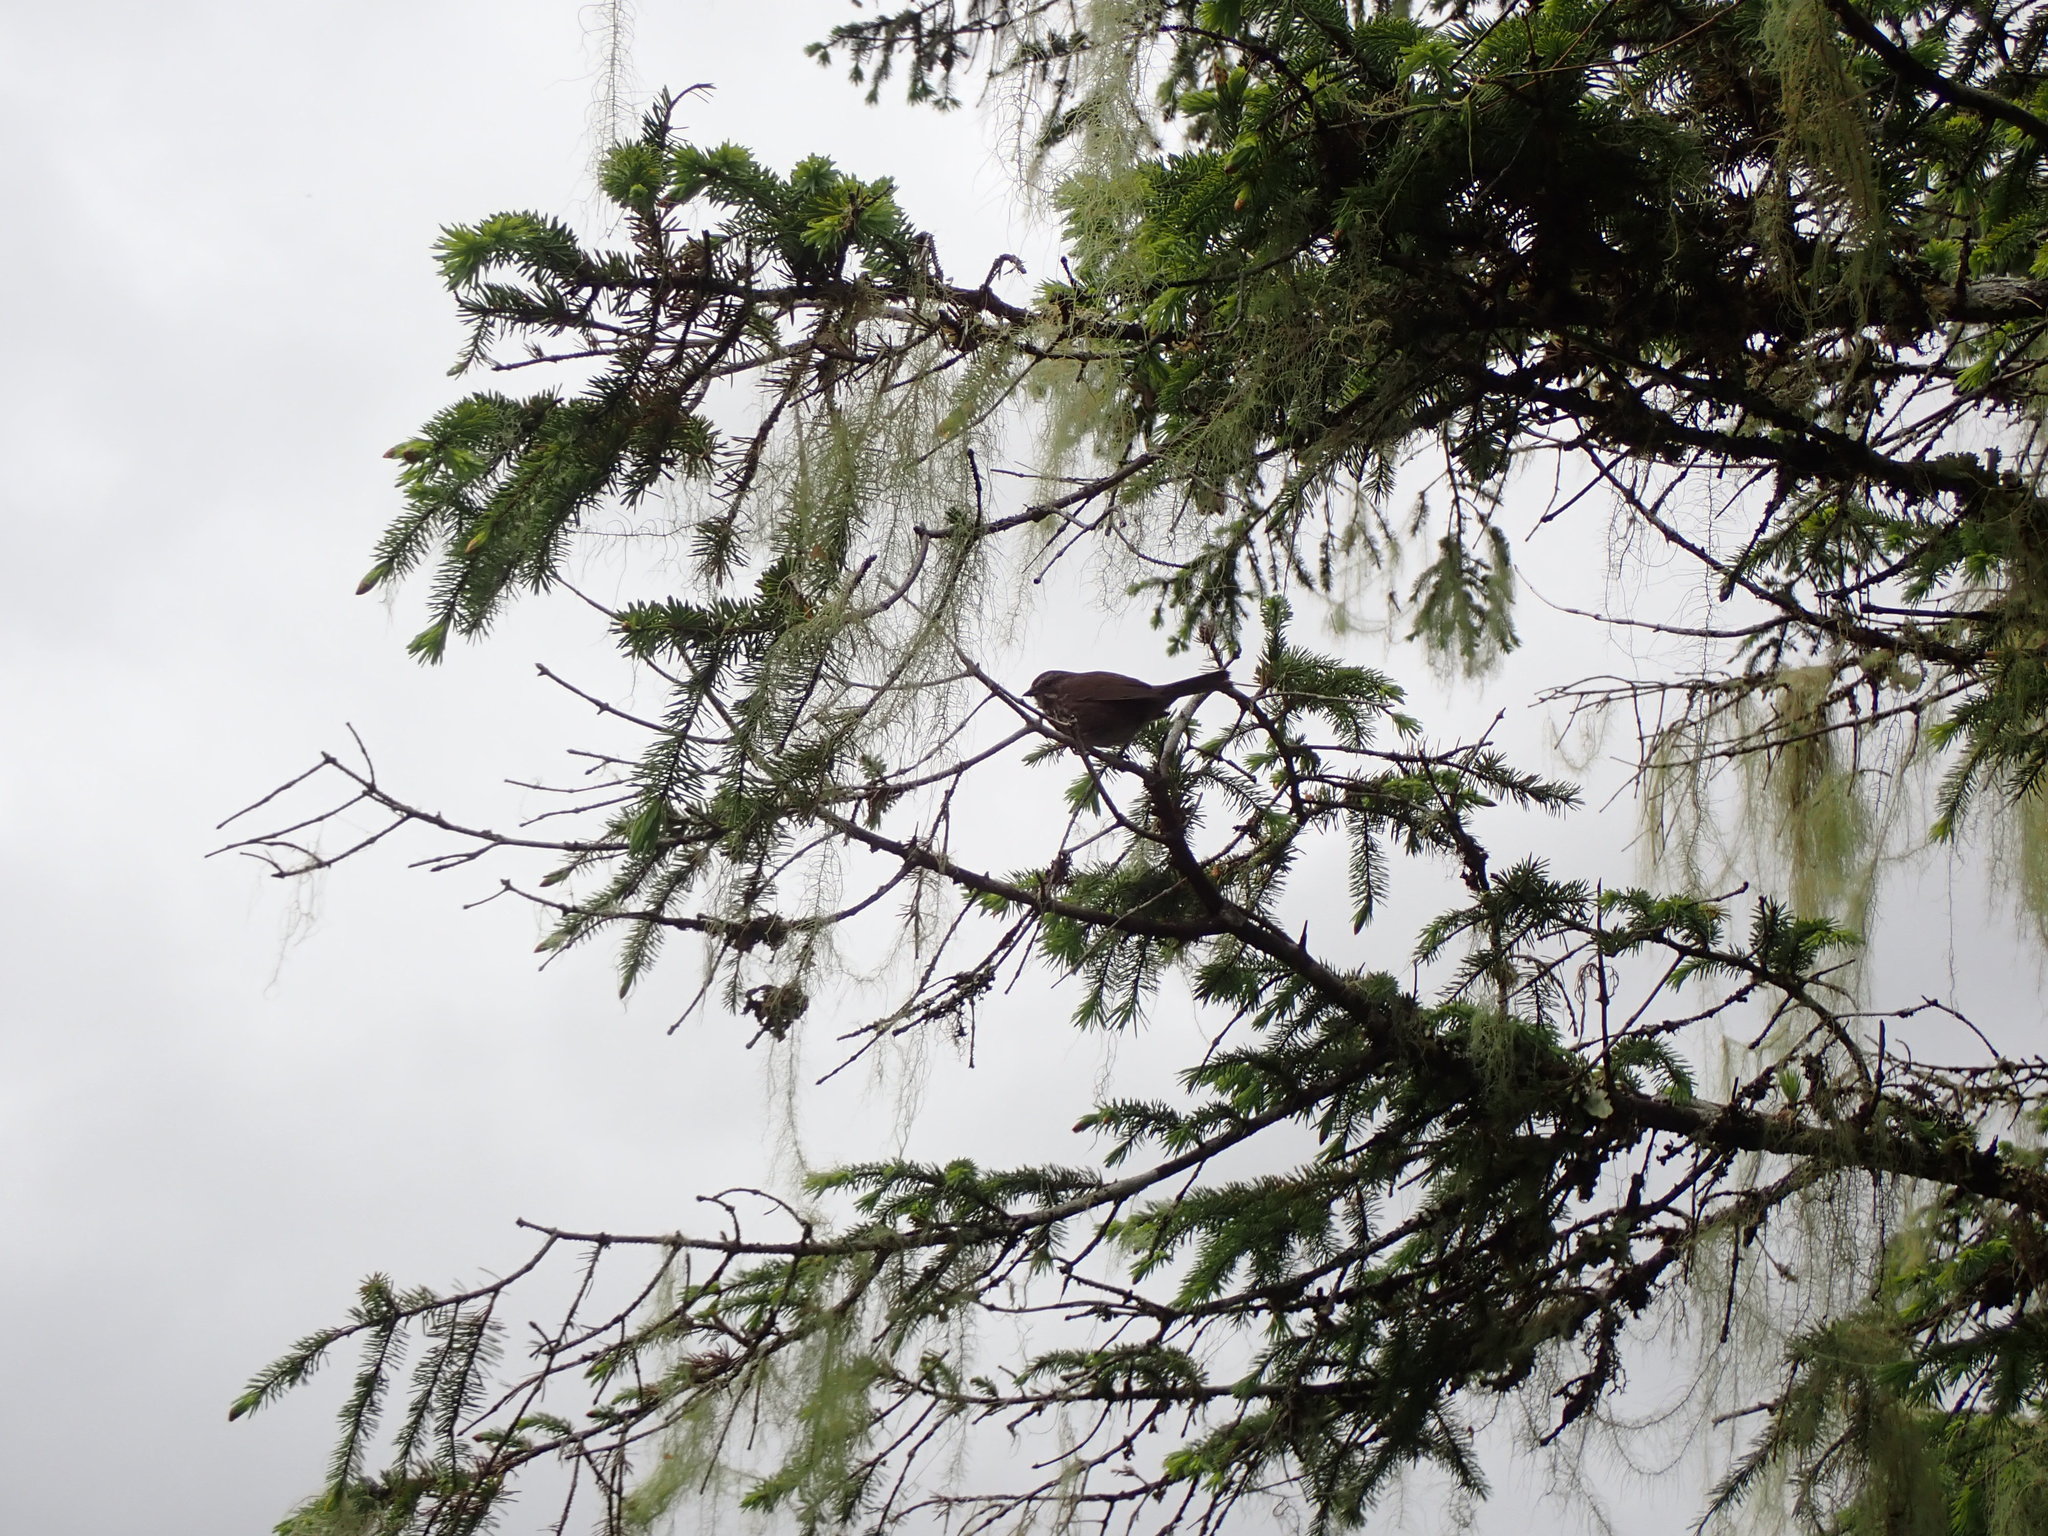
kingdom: Animalia
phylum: Chordata
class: Aves
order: Passeriformes
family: Passerellidae
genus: Melospiza
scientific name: Melospiza melodia
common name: Song sparrow
